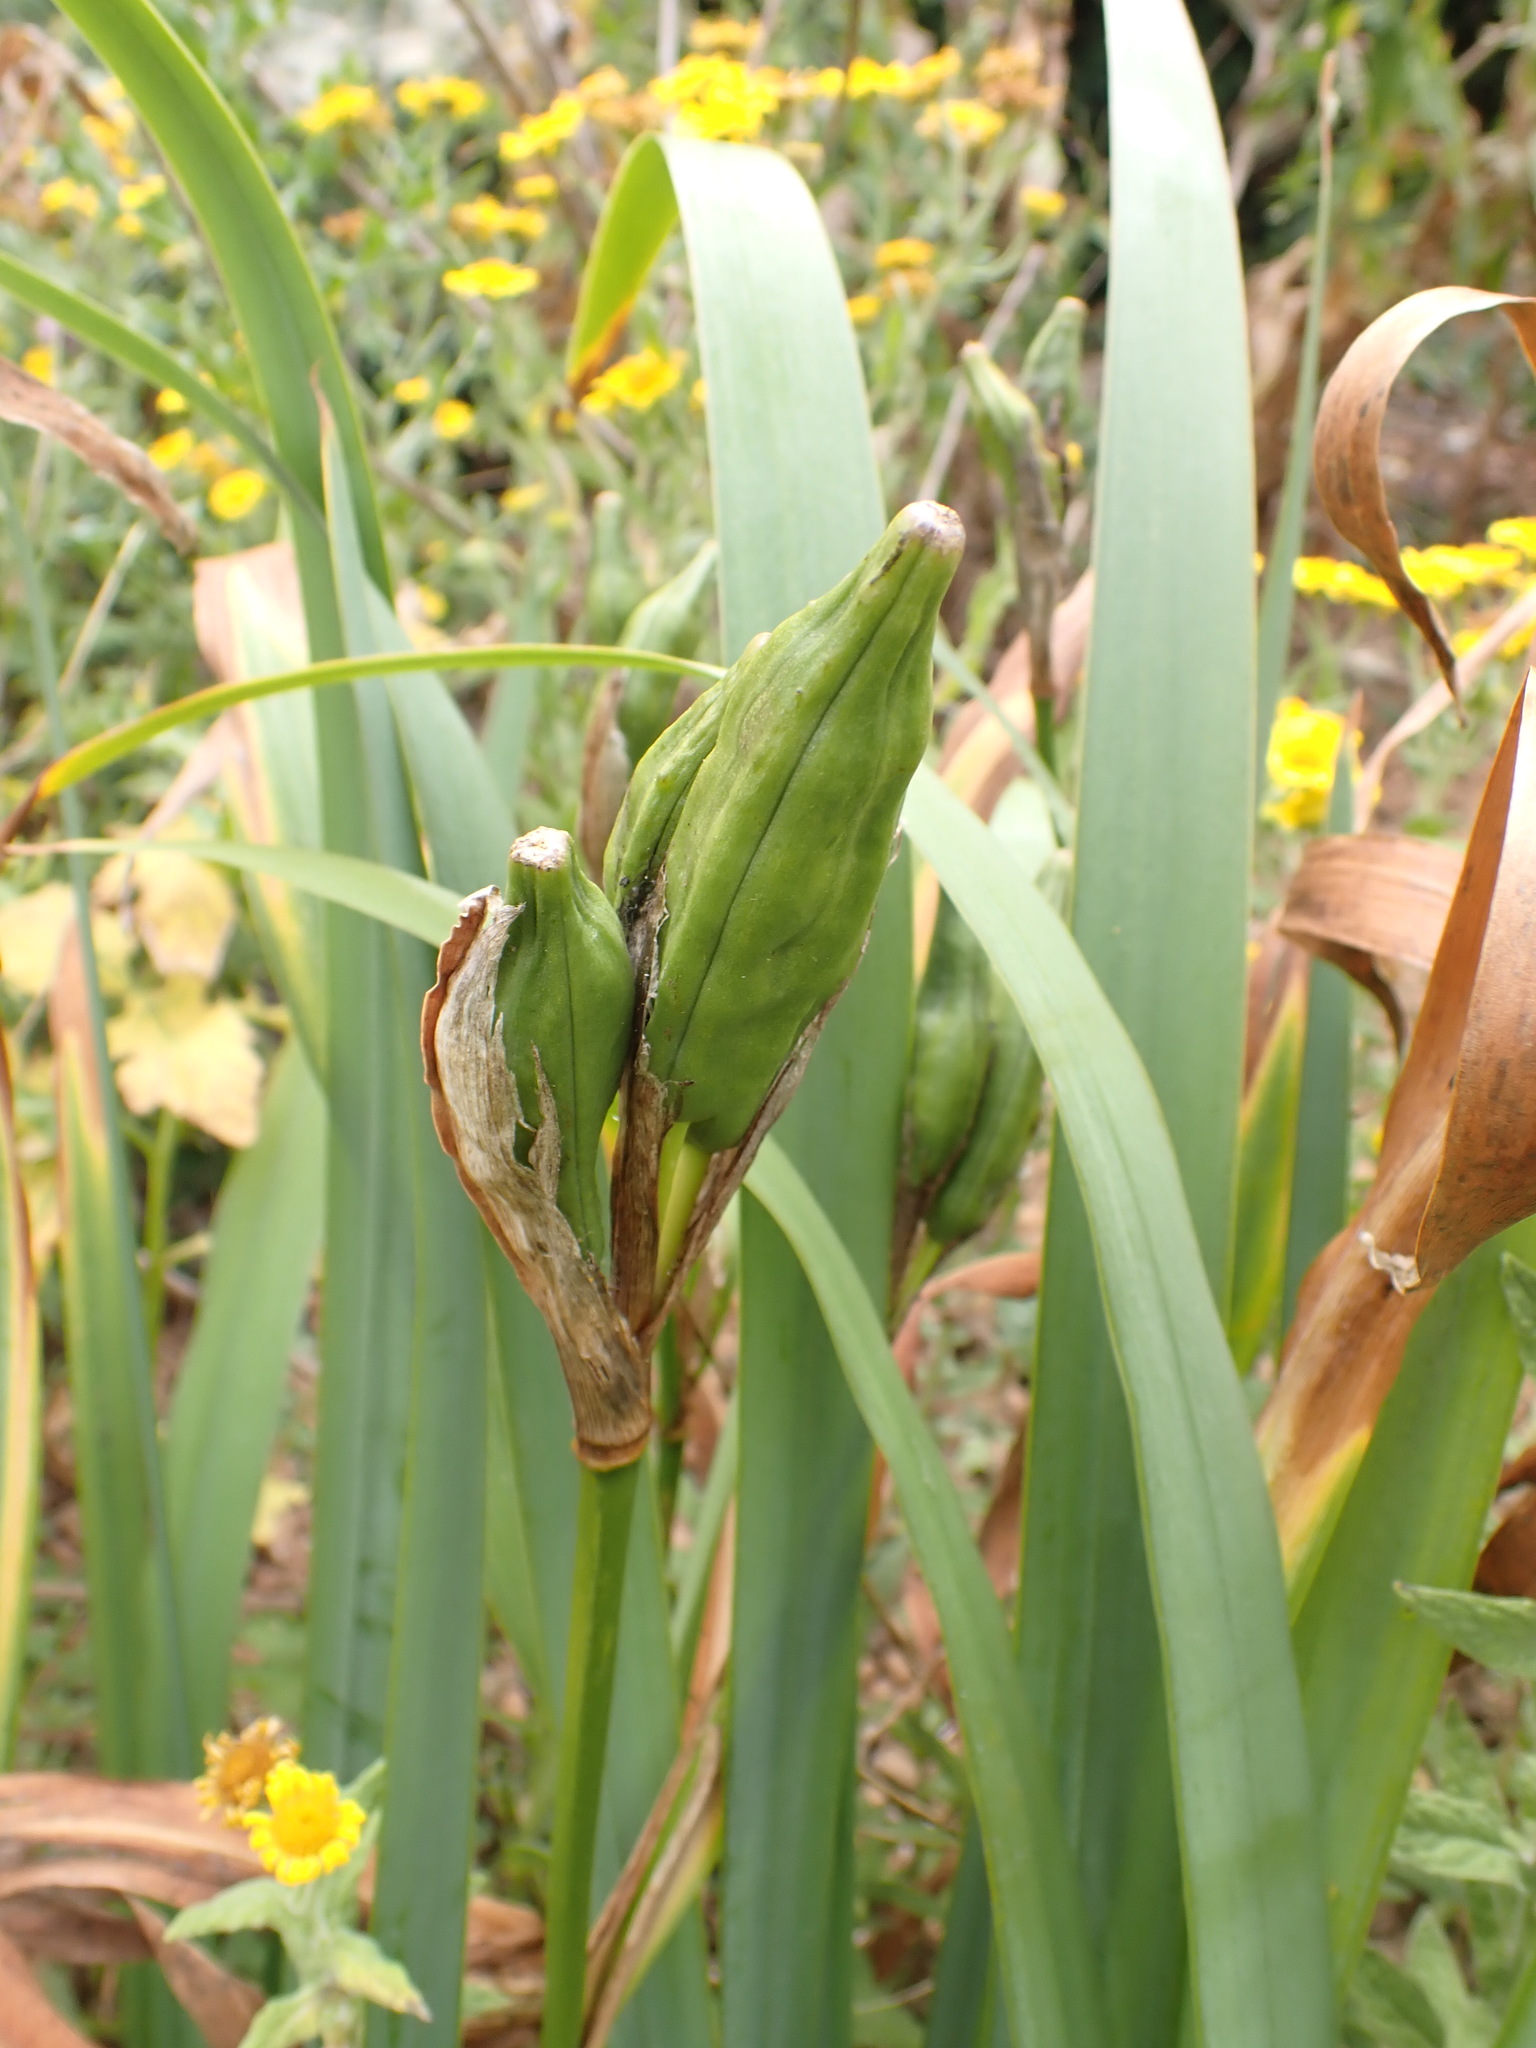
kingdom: Plantae
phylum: Tracheophyta
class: Liliopsida
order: Asparagales
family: Iridaceae
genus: Iris
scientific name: Iris pseudacorus
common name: Yellow flag
